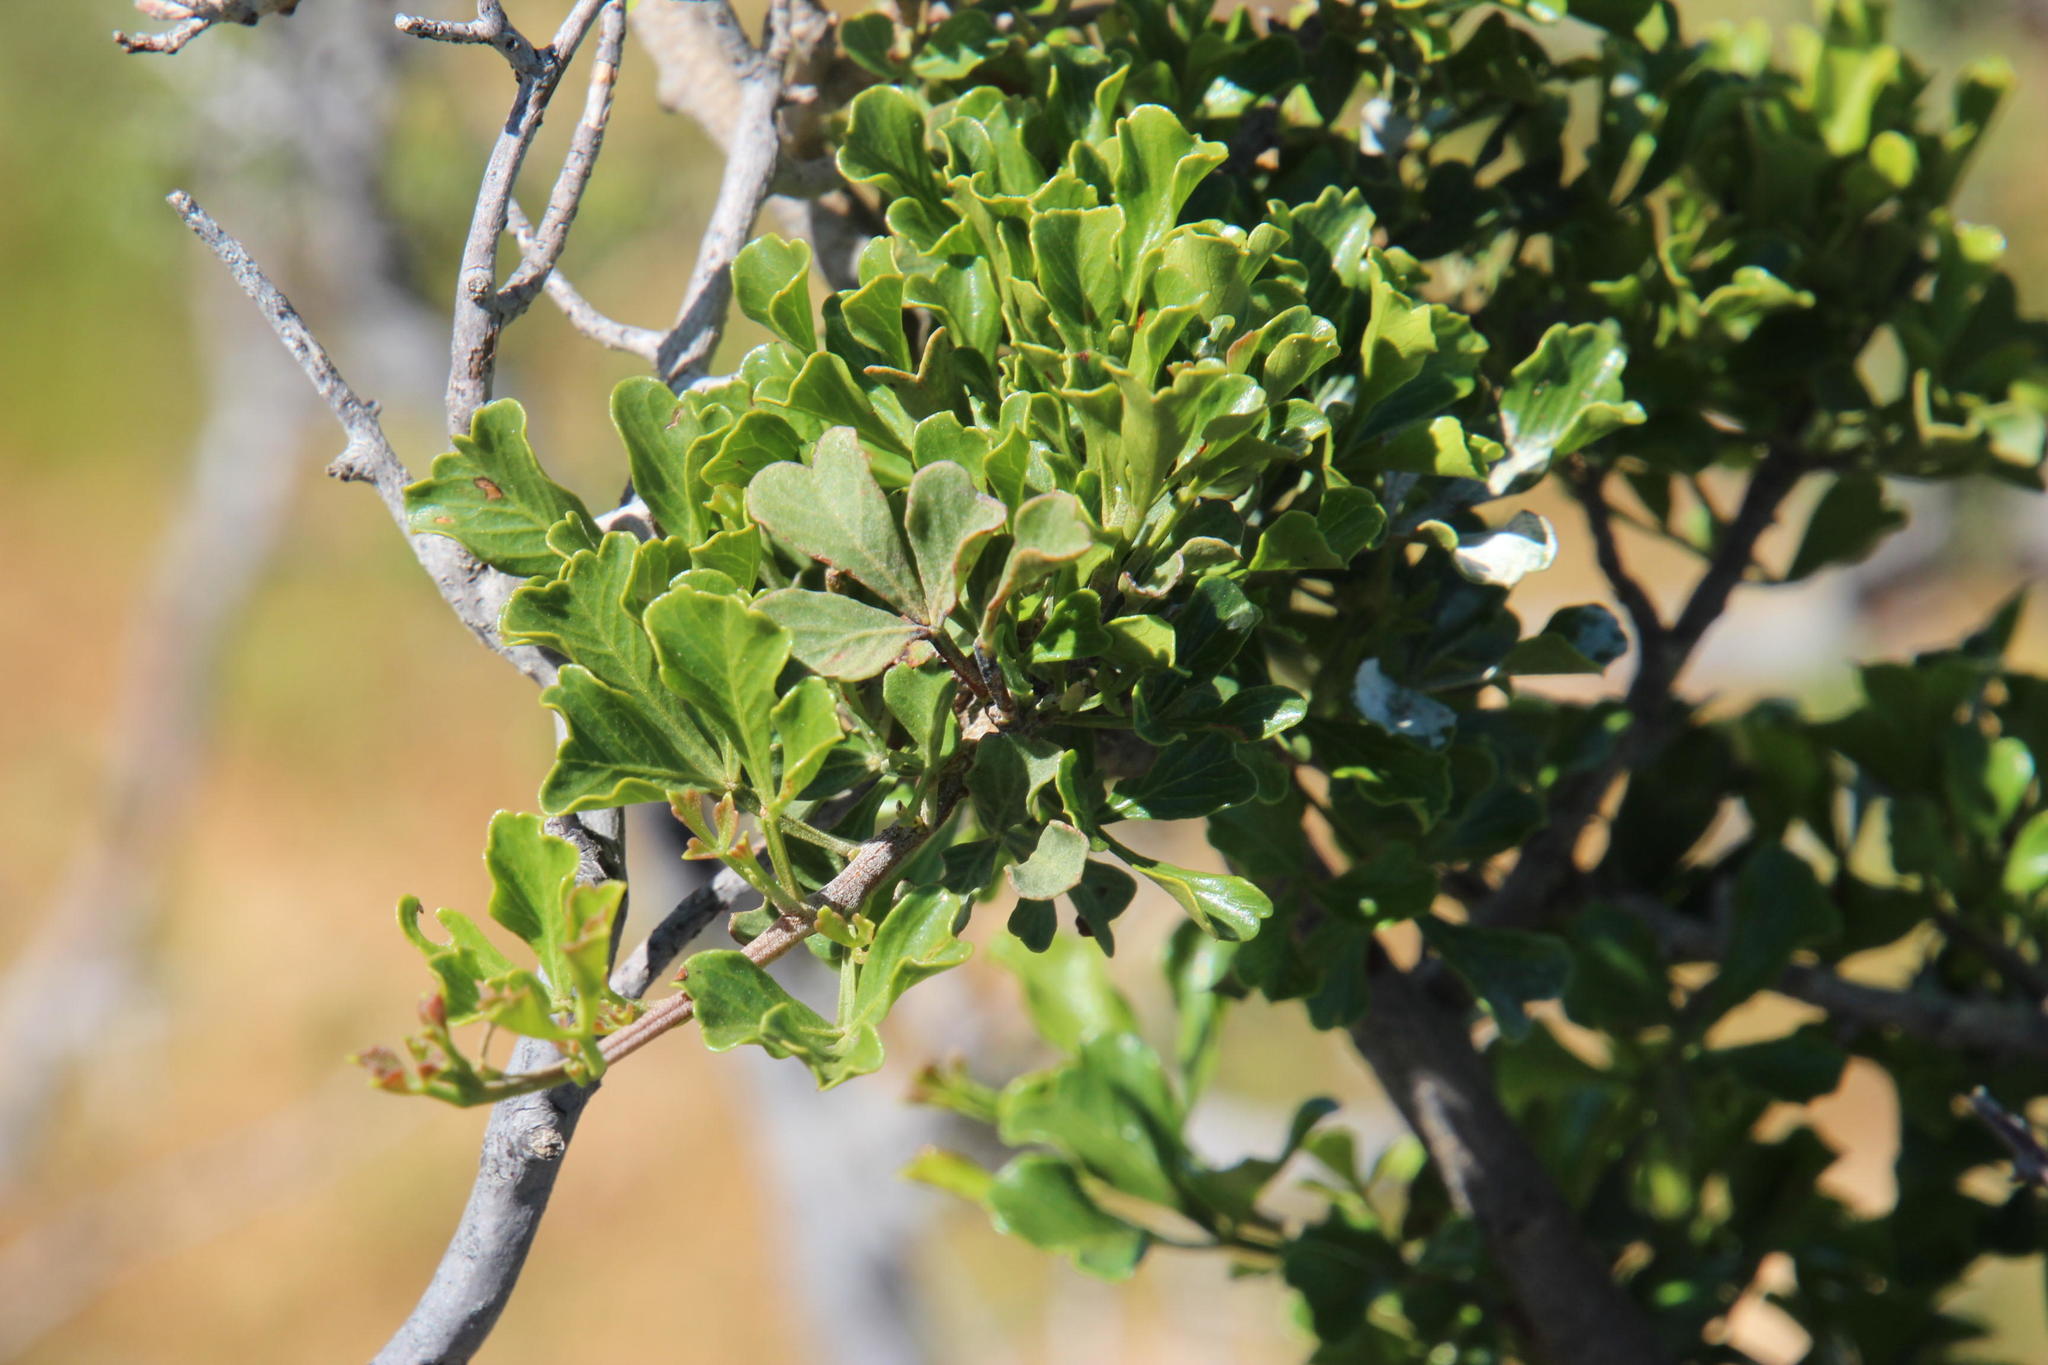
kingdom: Plantae
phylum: Tracheophyta
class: Magnoliopsida
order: Sapindales
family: Anacardiaceae
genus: Searsia
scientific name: Searsia burchellii
